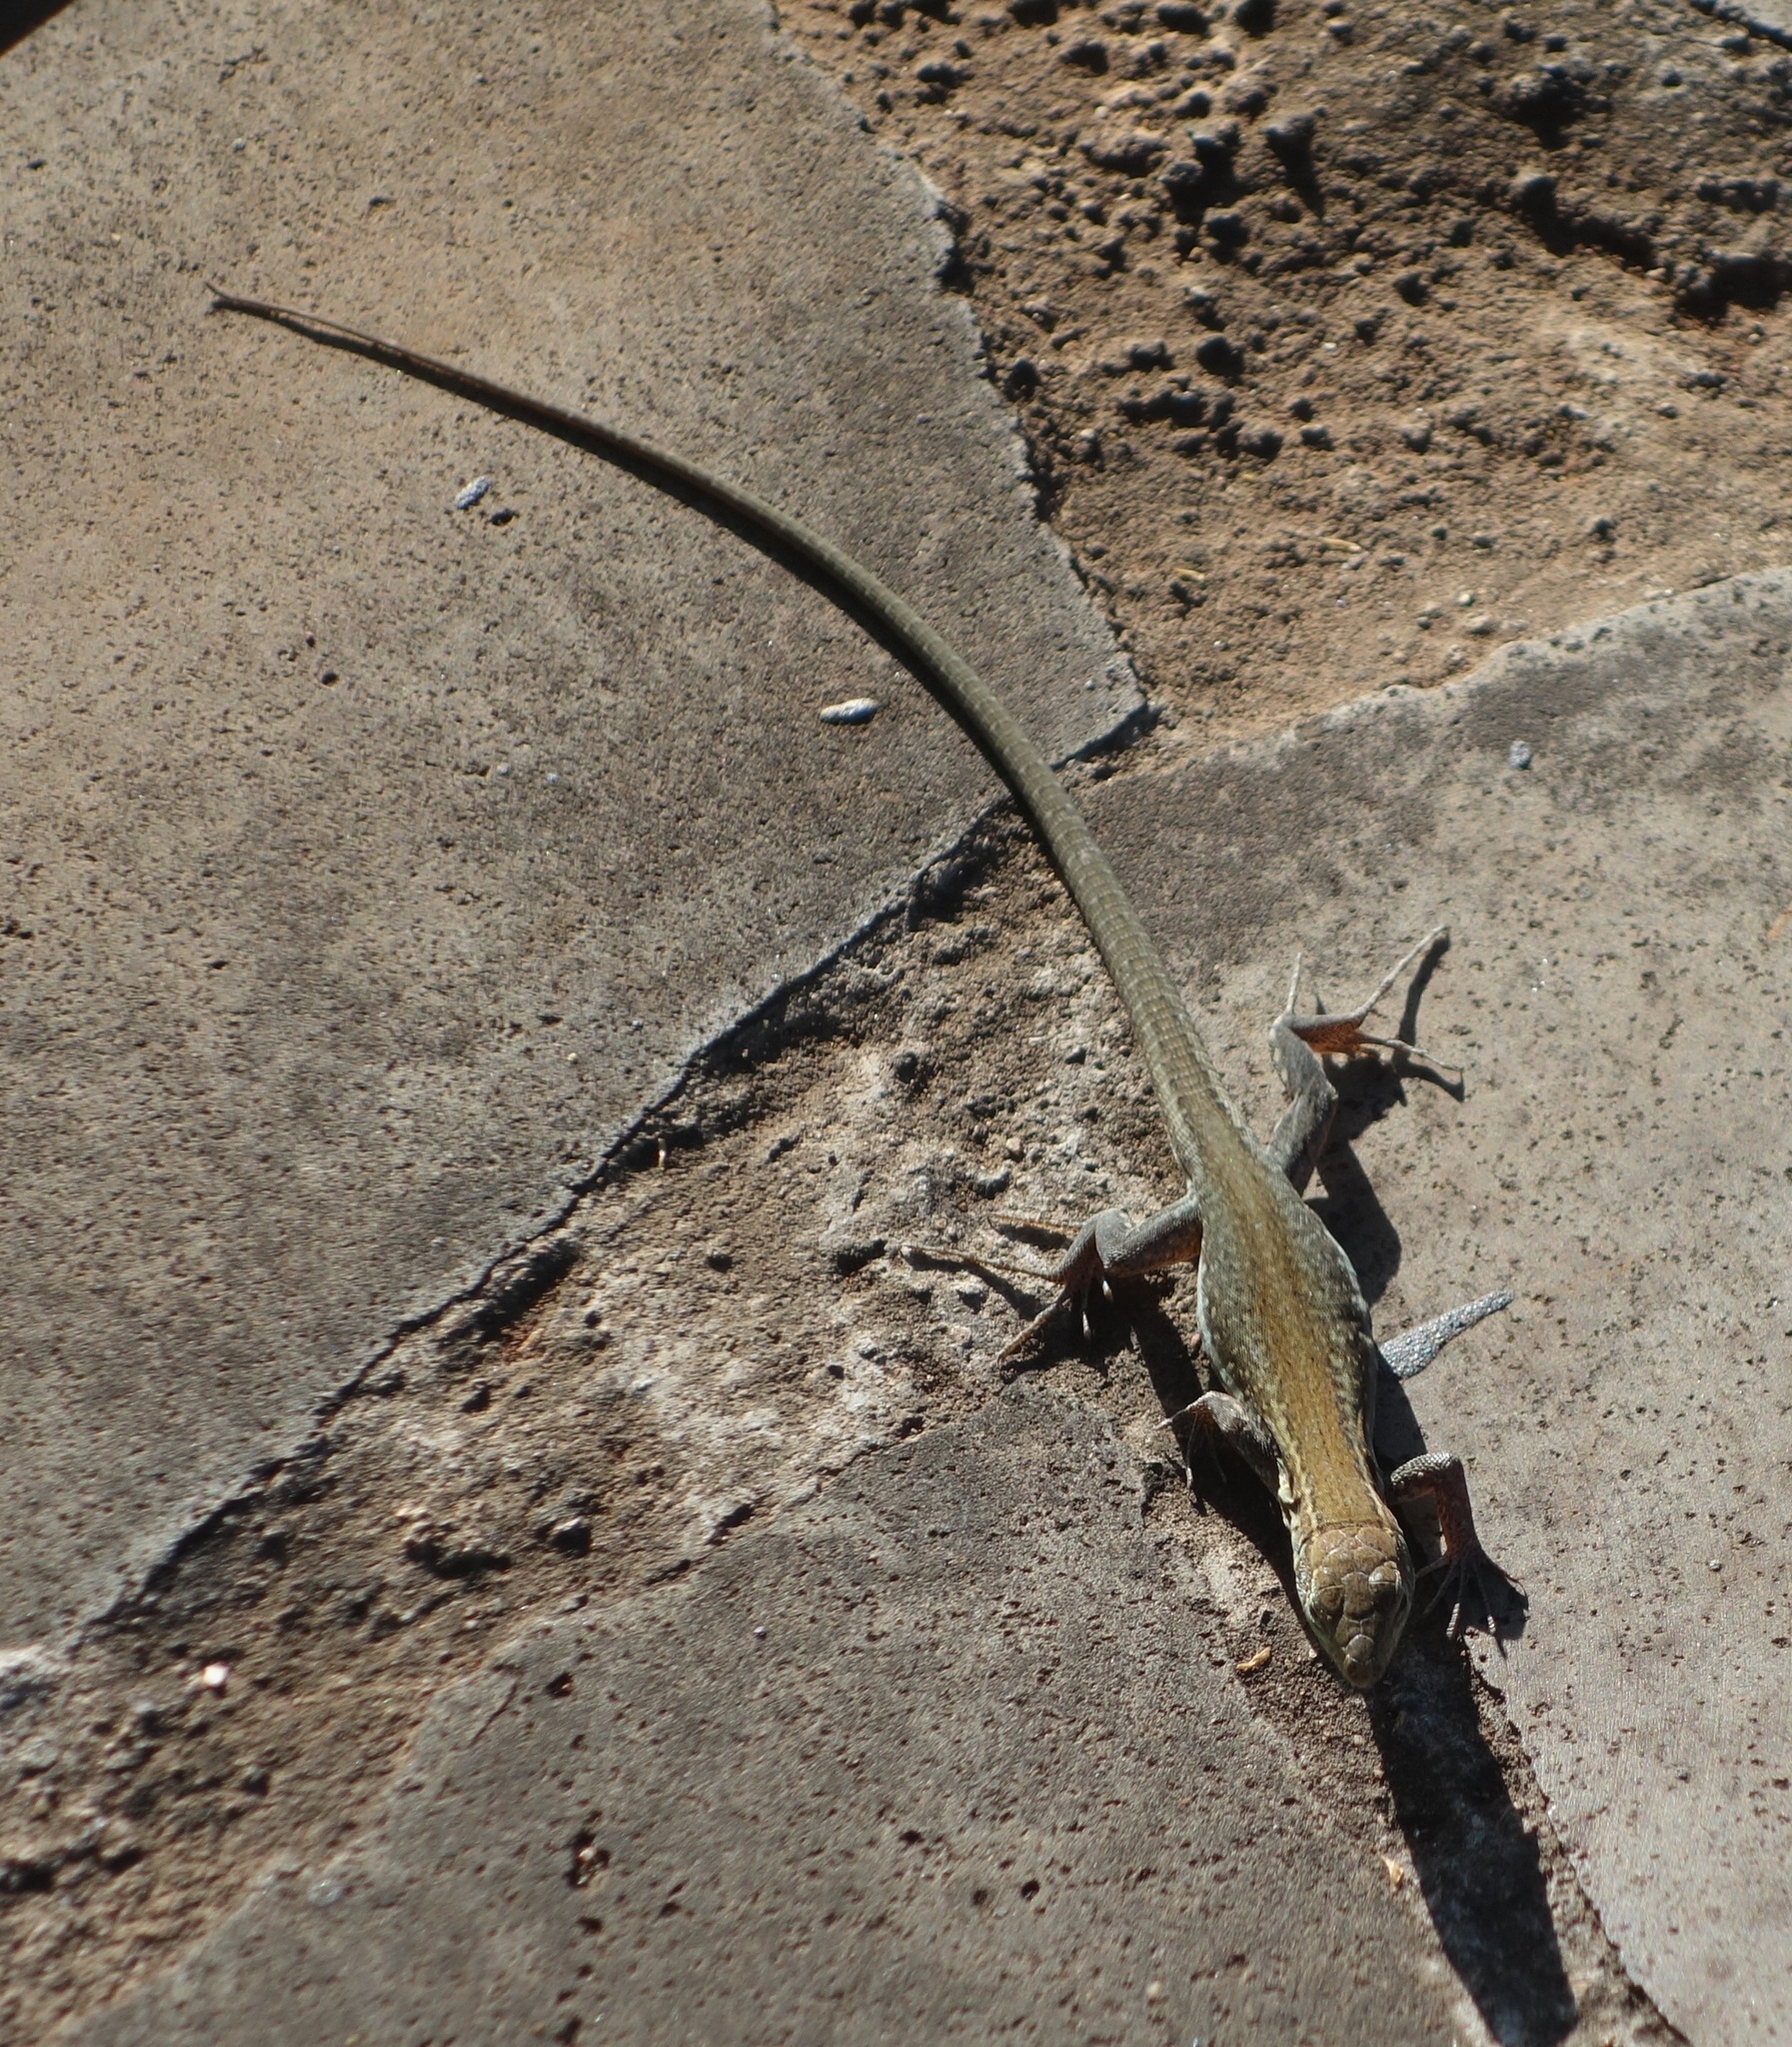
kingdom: Animalia
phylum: Chordata
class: Squamata
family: Lacertidae
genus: Gallotia
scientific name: Gallotia galloti
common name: Gallot's lizard
